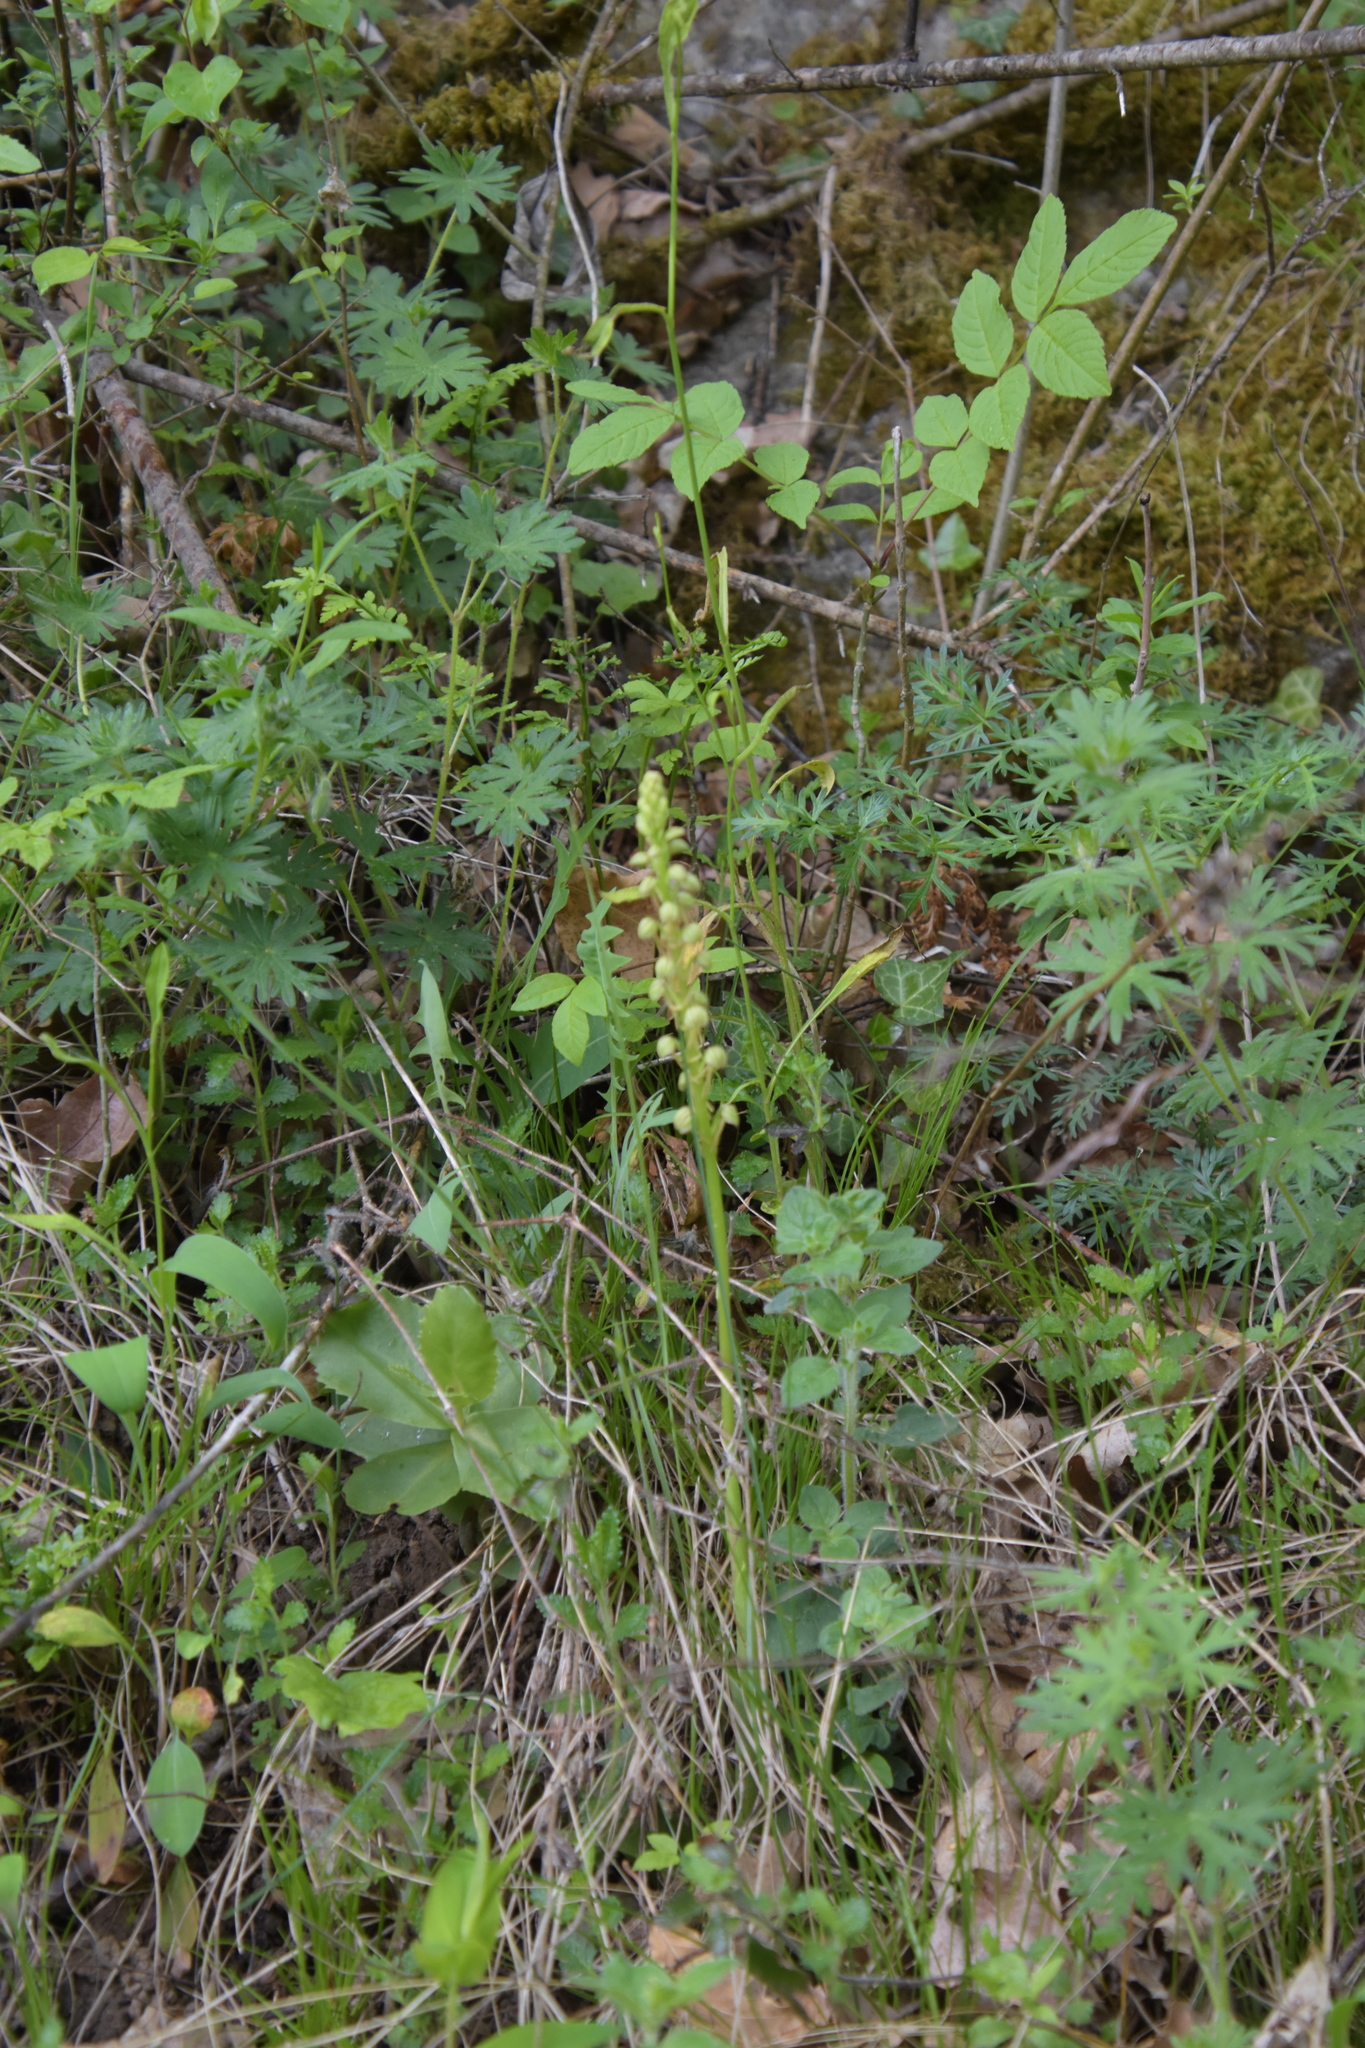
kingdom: Plantae
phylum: Tracheophyta
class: Liliopsida
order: Asparagales
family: Orchidaceae
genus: Orchis
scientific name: Orchis anthropophora
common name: Man orchid
